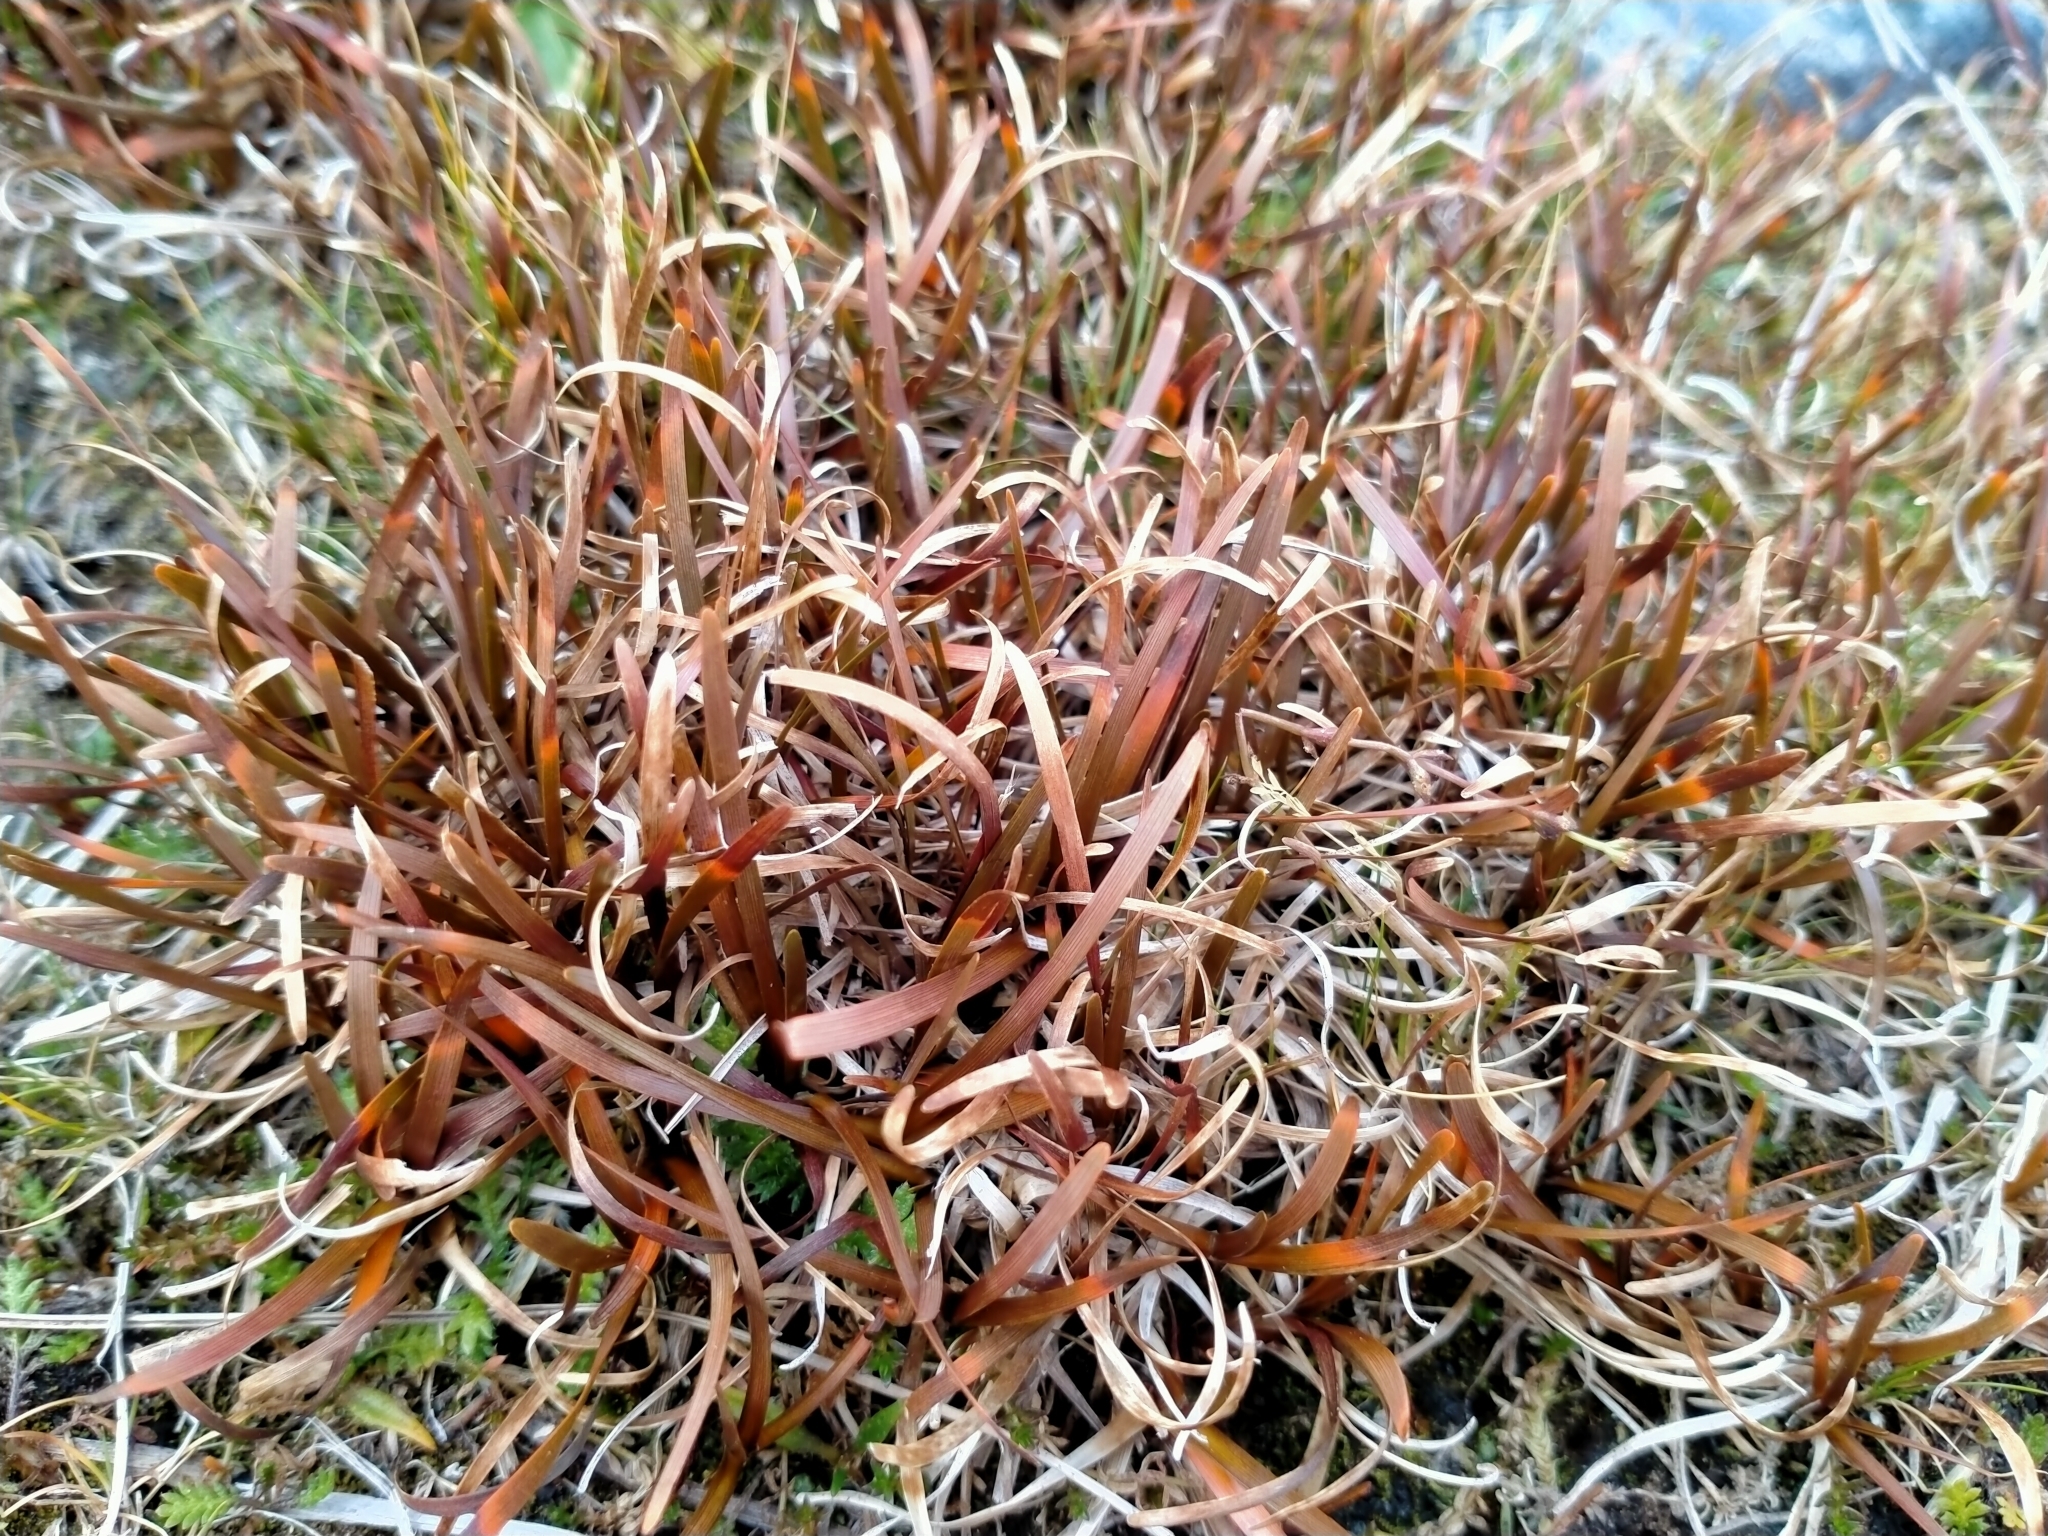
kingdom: Plantae
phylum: Tracheophyta
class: Liliopsida
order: Poales
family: Cyperaceae
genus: Carex
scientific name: Carex talbotii
